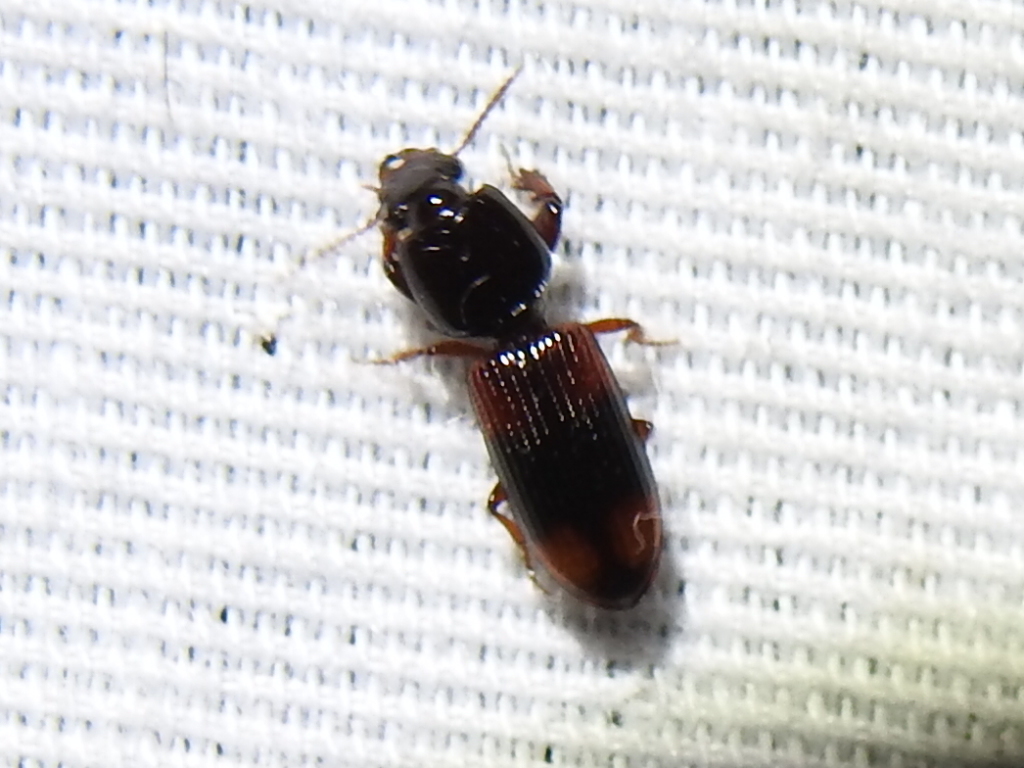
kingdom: Animalia
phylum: Arthropoda
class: Insecta
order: Coleoptera
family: Carabidae
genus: Clivina
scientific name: Clivina bipustulata
